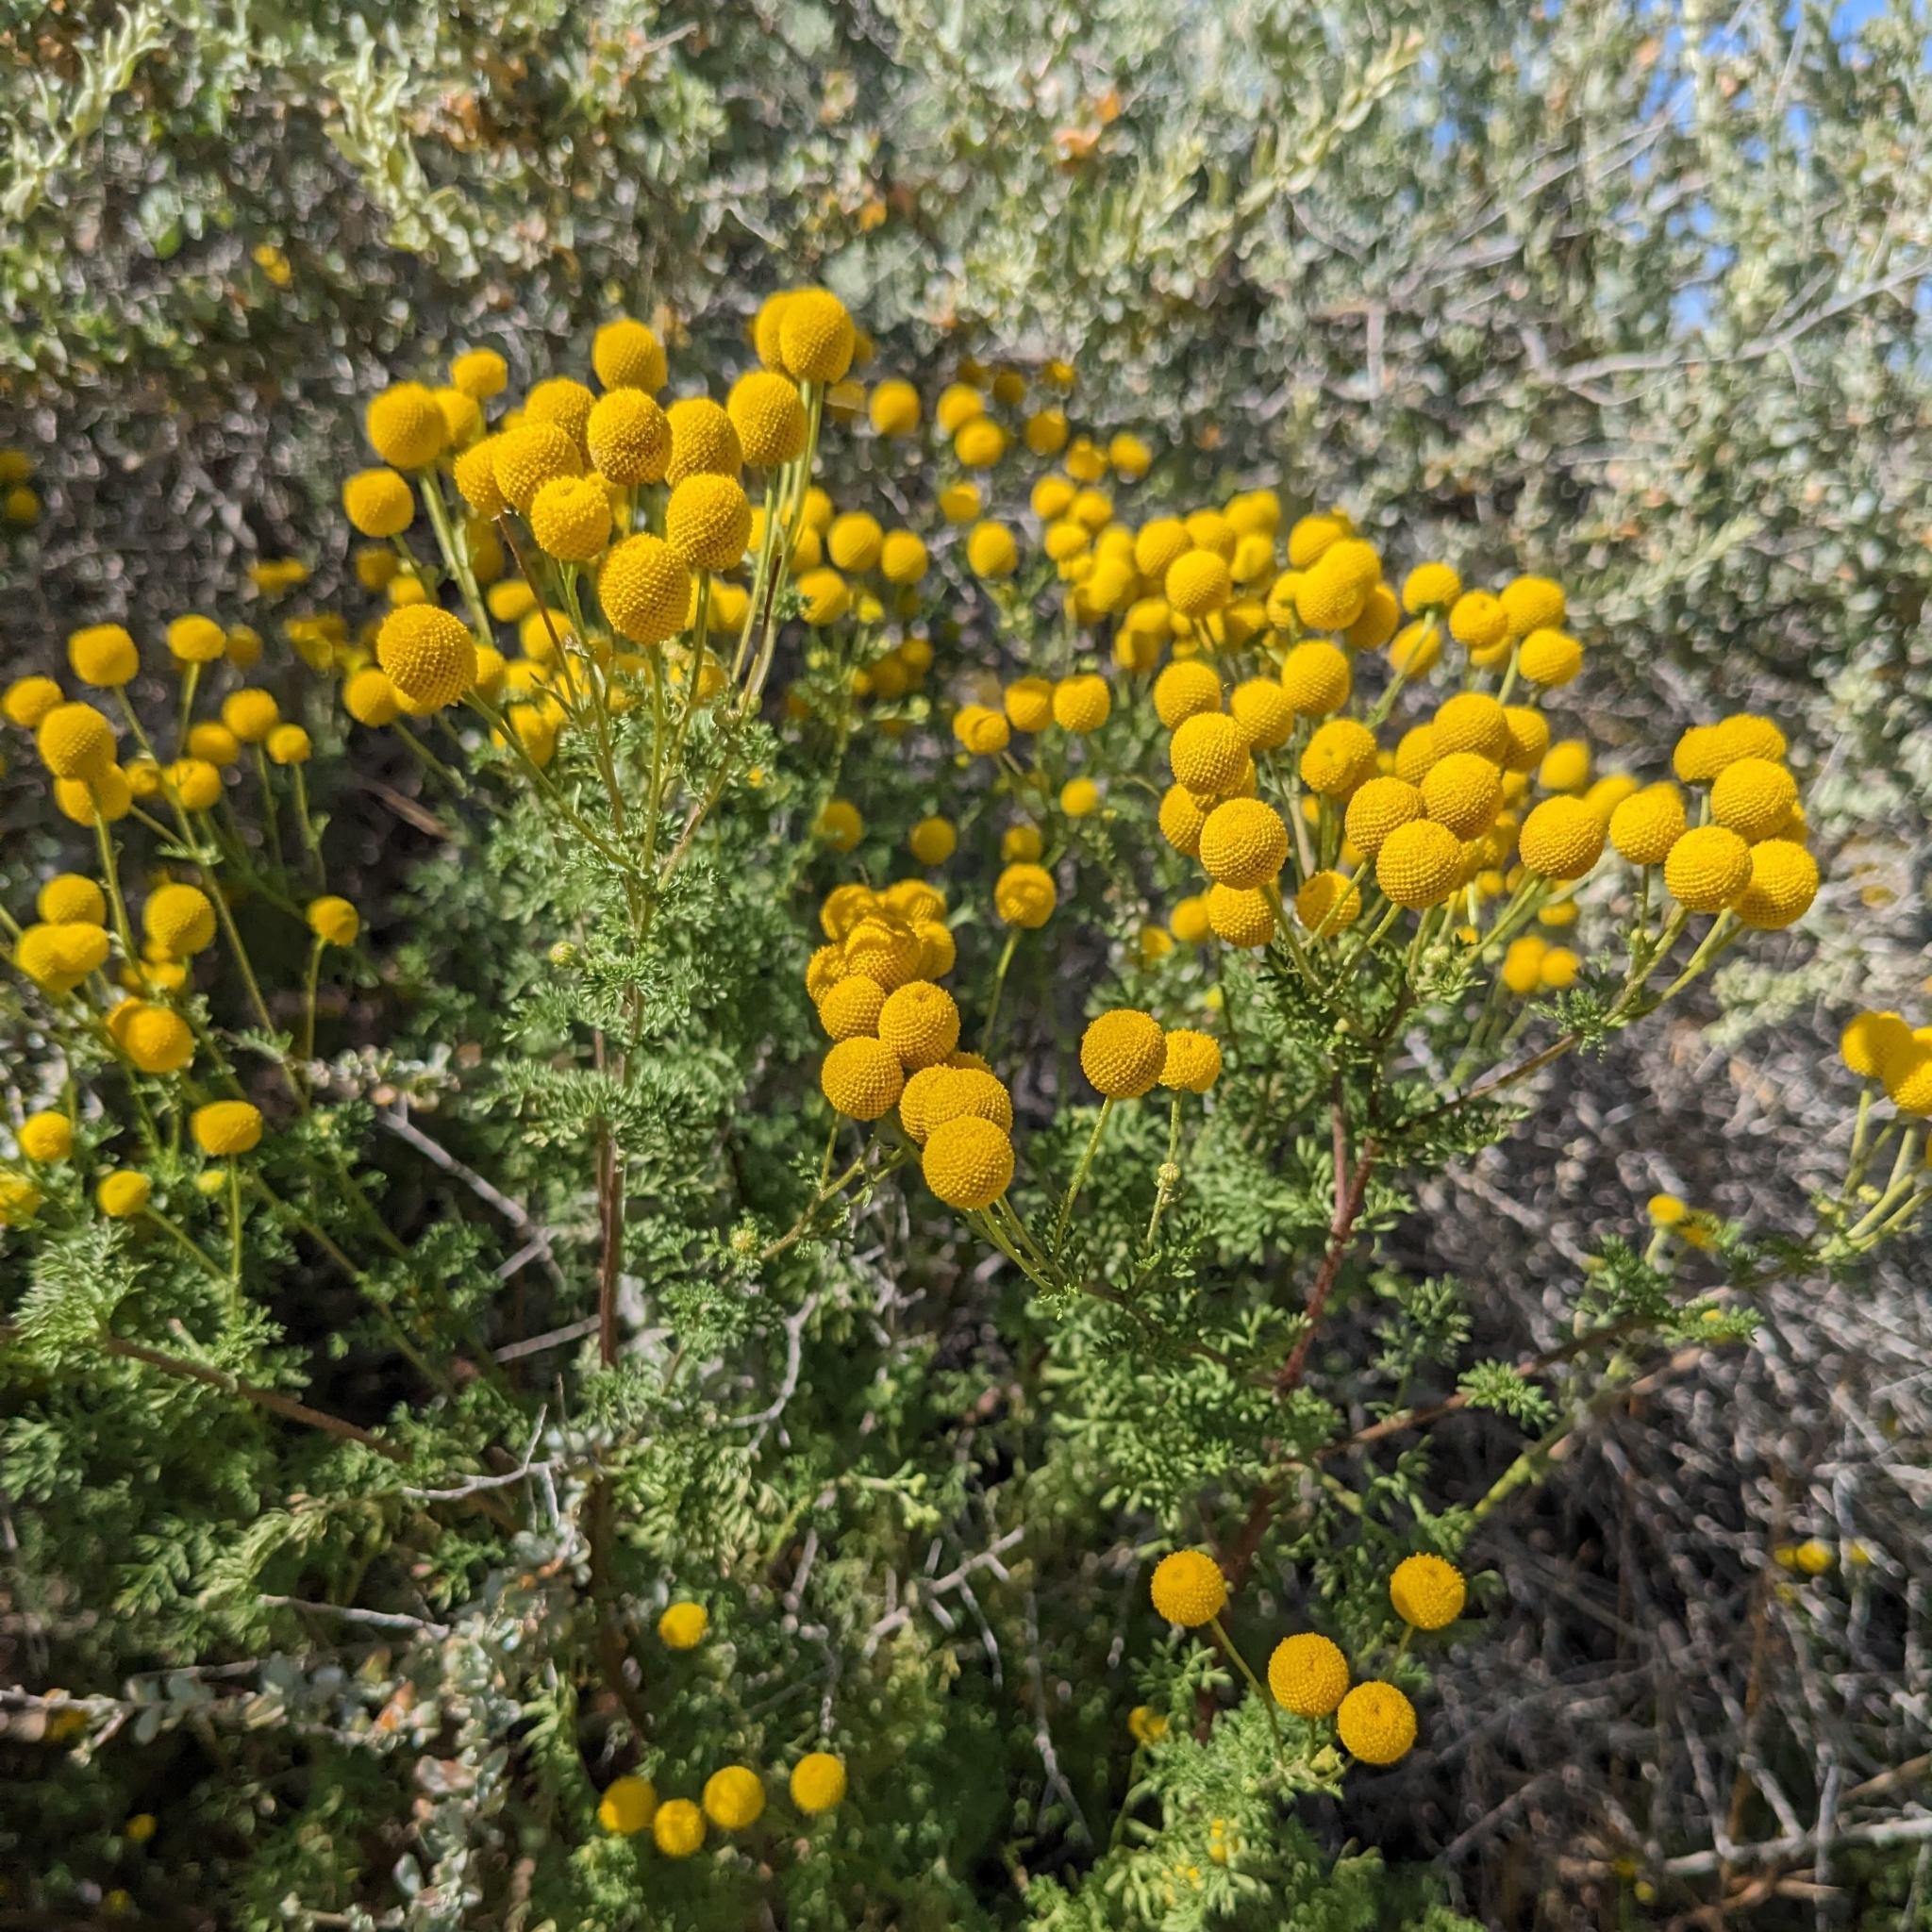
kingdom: Plantae
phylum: Tracheophyta
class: Magnoliopsida
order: Asterales
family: Asteraceae
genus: Oncosiphon
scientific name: Oncosiphon pilulifer
